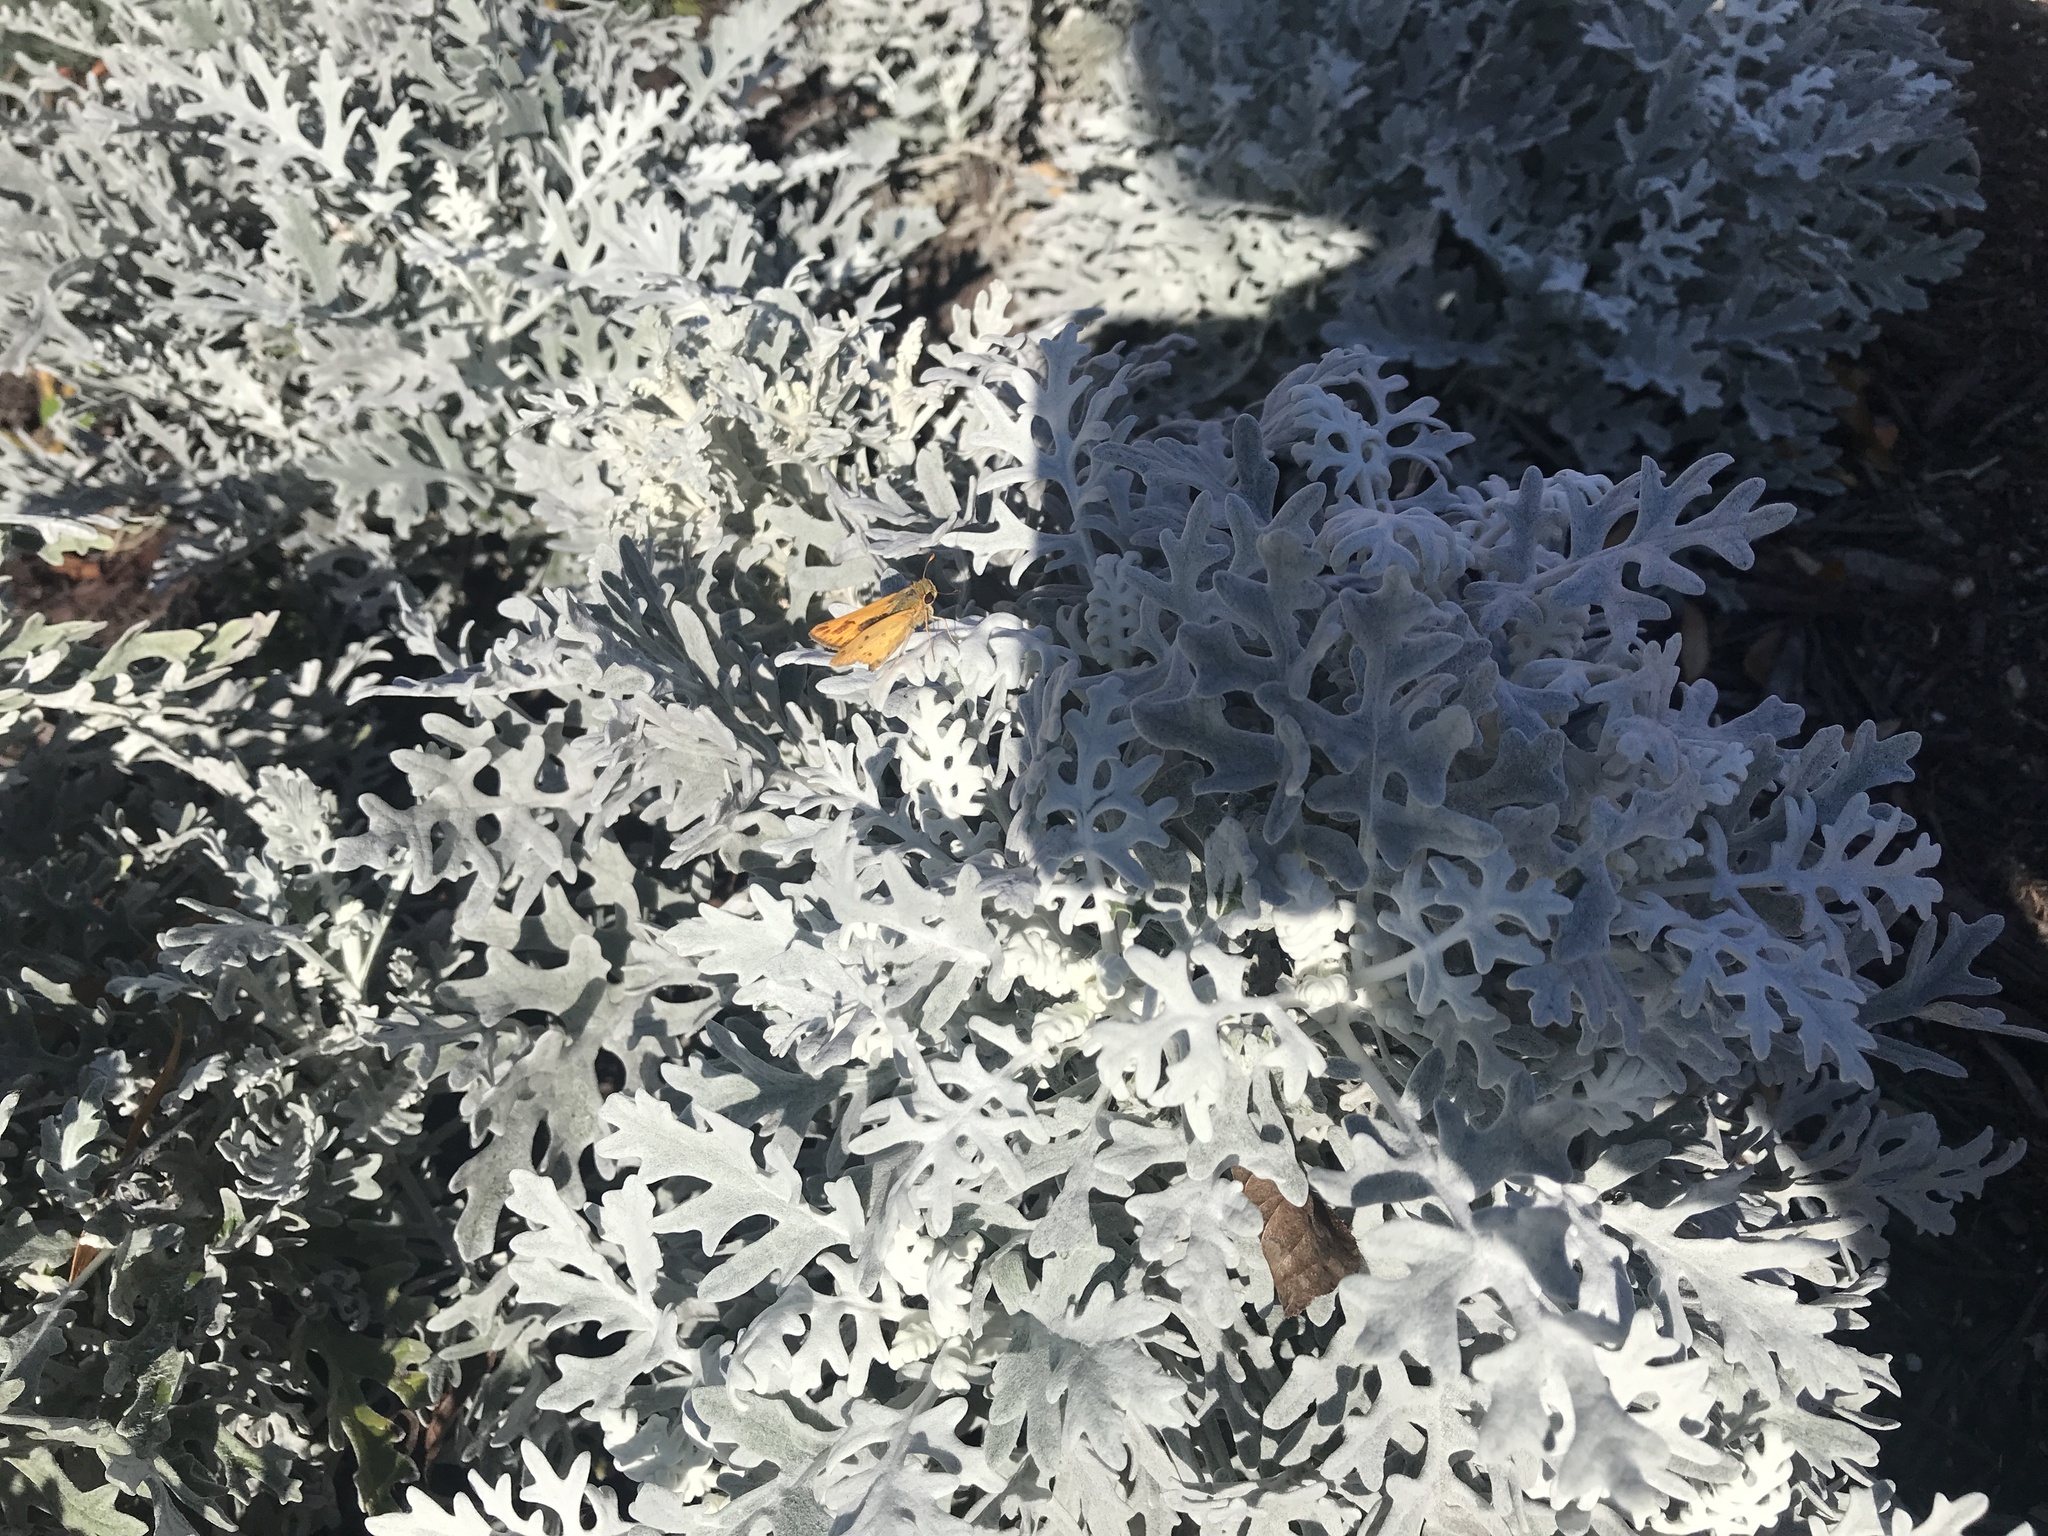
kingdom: Animalia
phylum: Arthropoda
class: Insecta
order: Lepidoptera
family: Hesperiidae
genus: Hylephila
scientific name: Hylephila phyleus
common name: Fiery skipper
